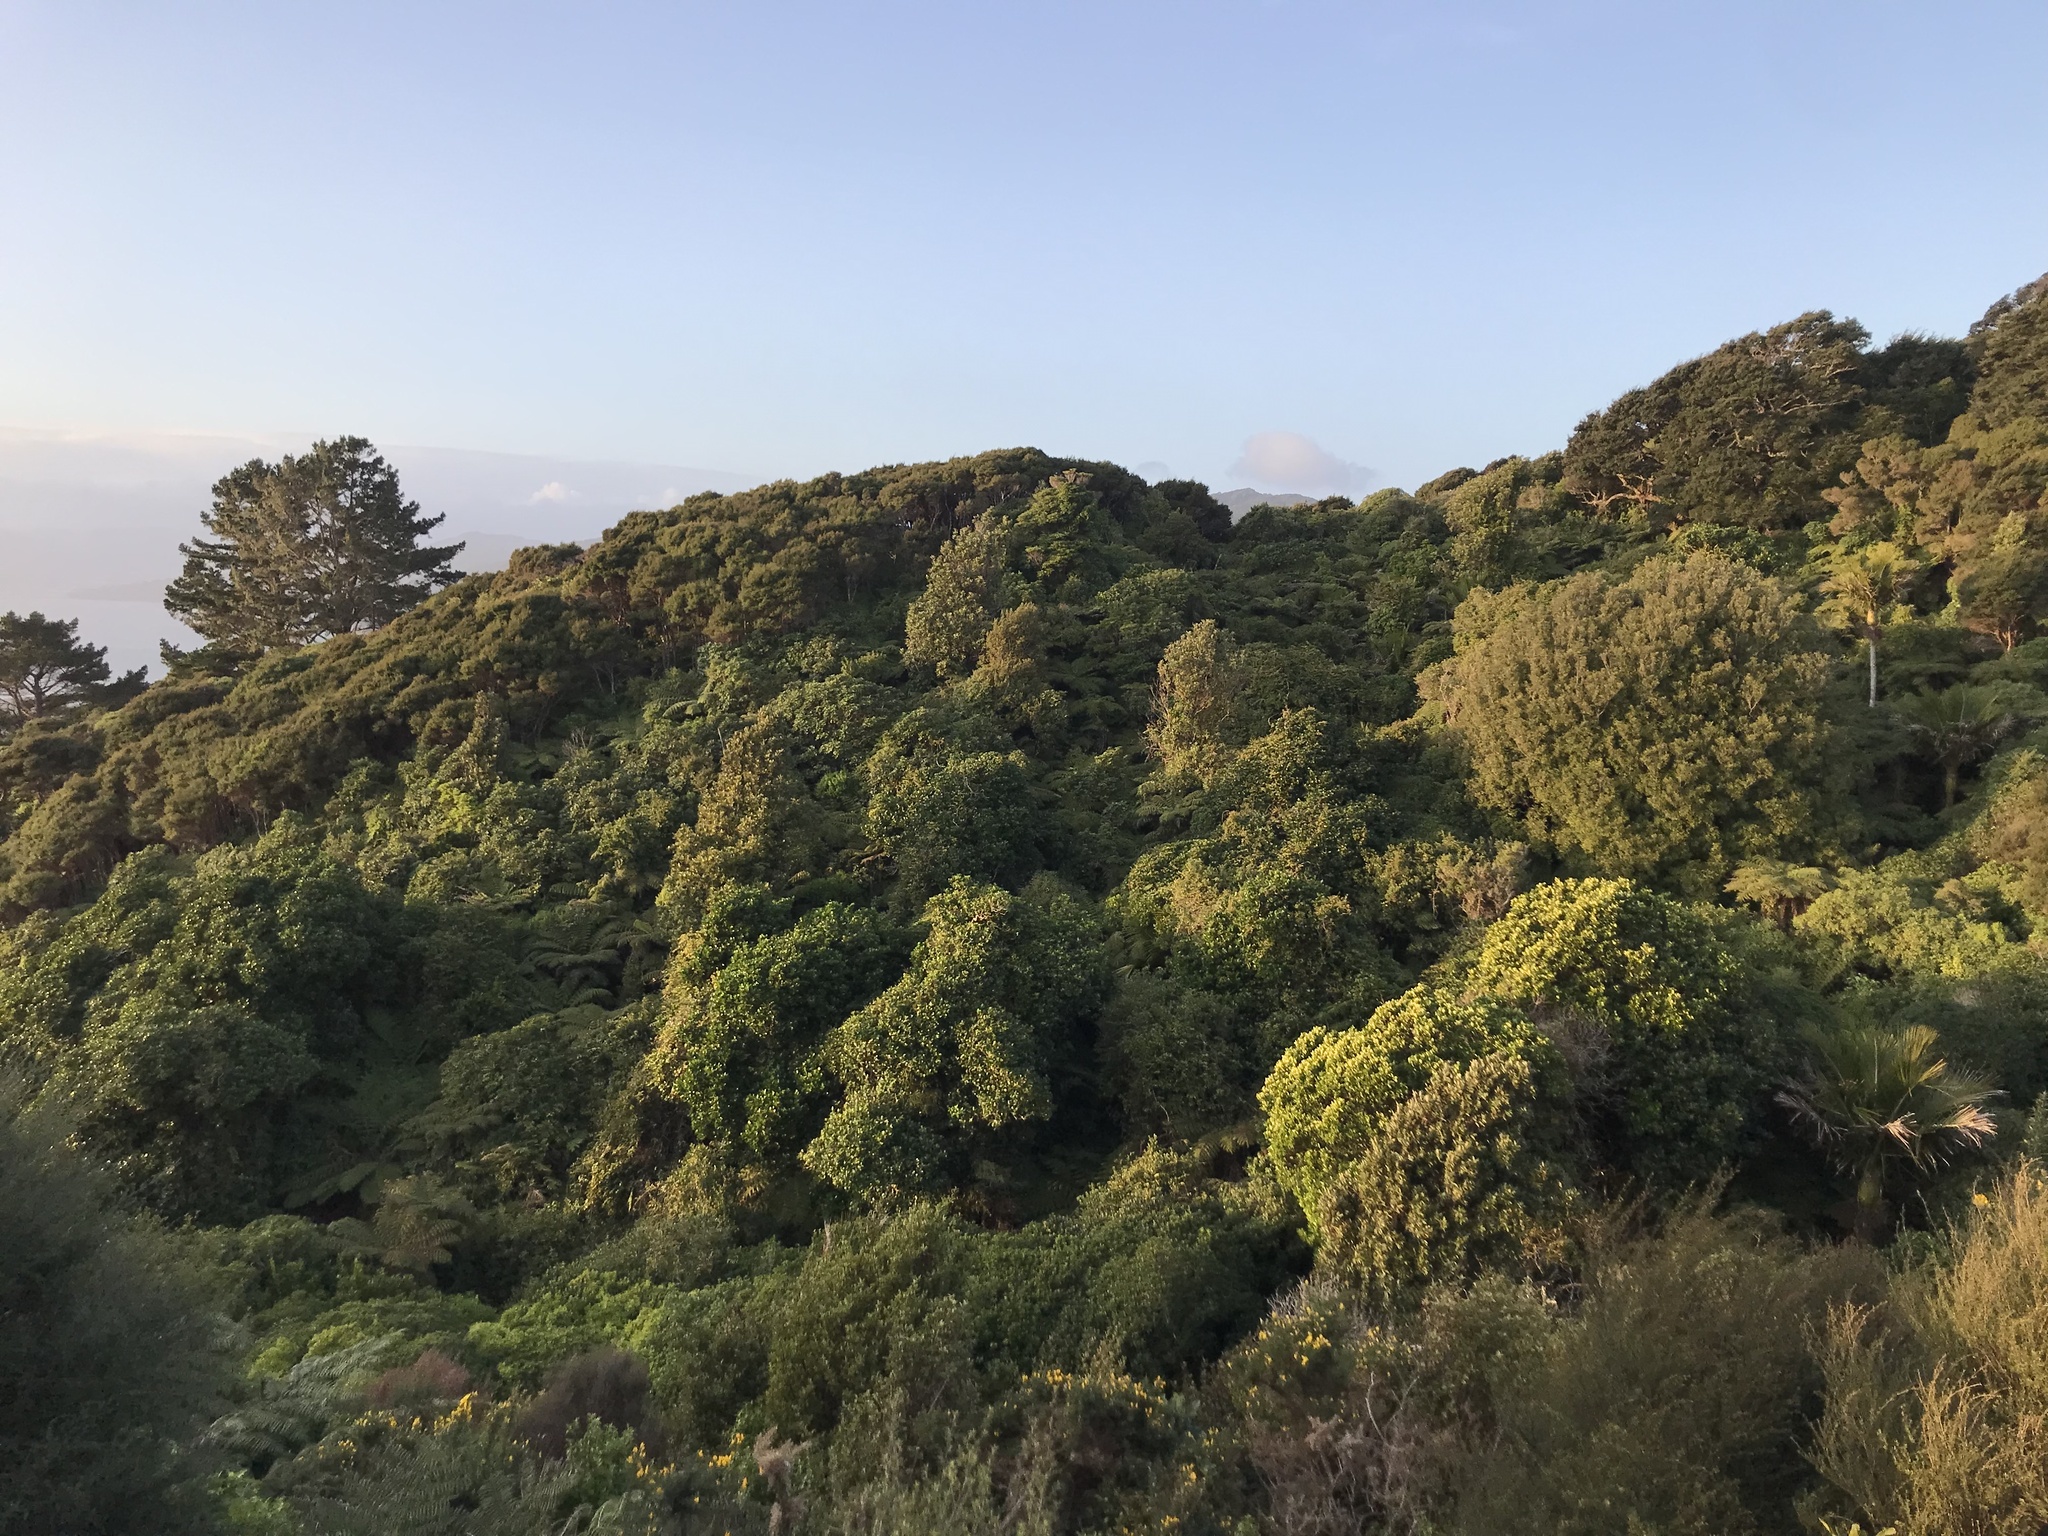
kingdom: Plantae
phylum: Tracheophyta
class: Magnoliopsida
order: Cucurbitales
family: Corynocarpaceae
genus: Corynocarpus
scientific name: Corynocarpus laevigatus
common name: New zealand laurel
